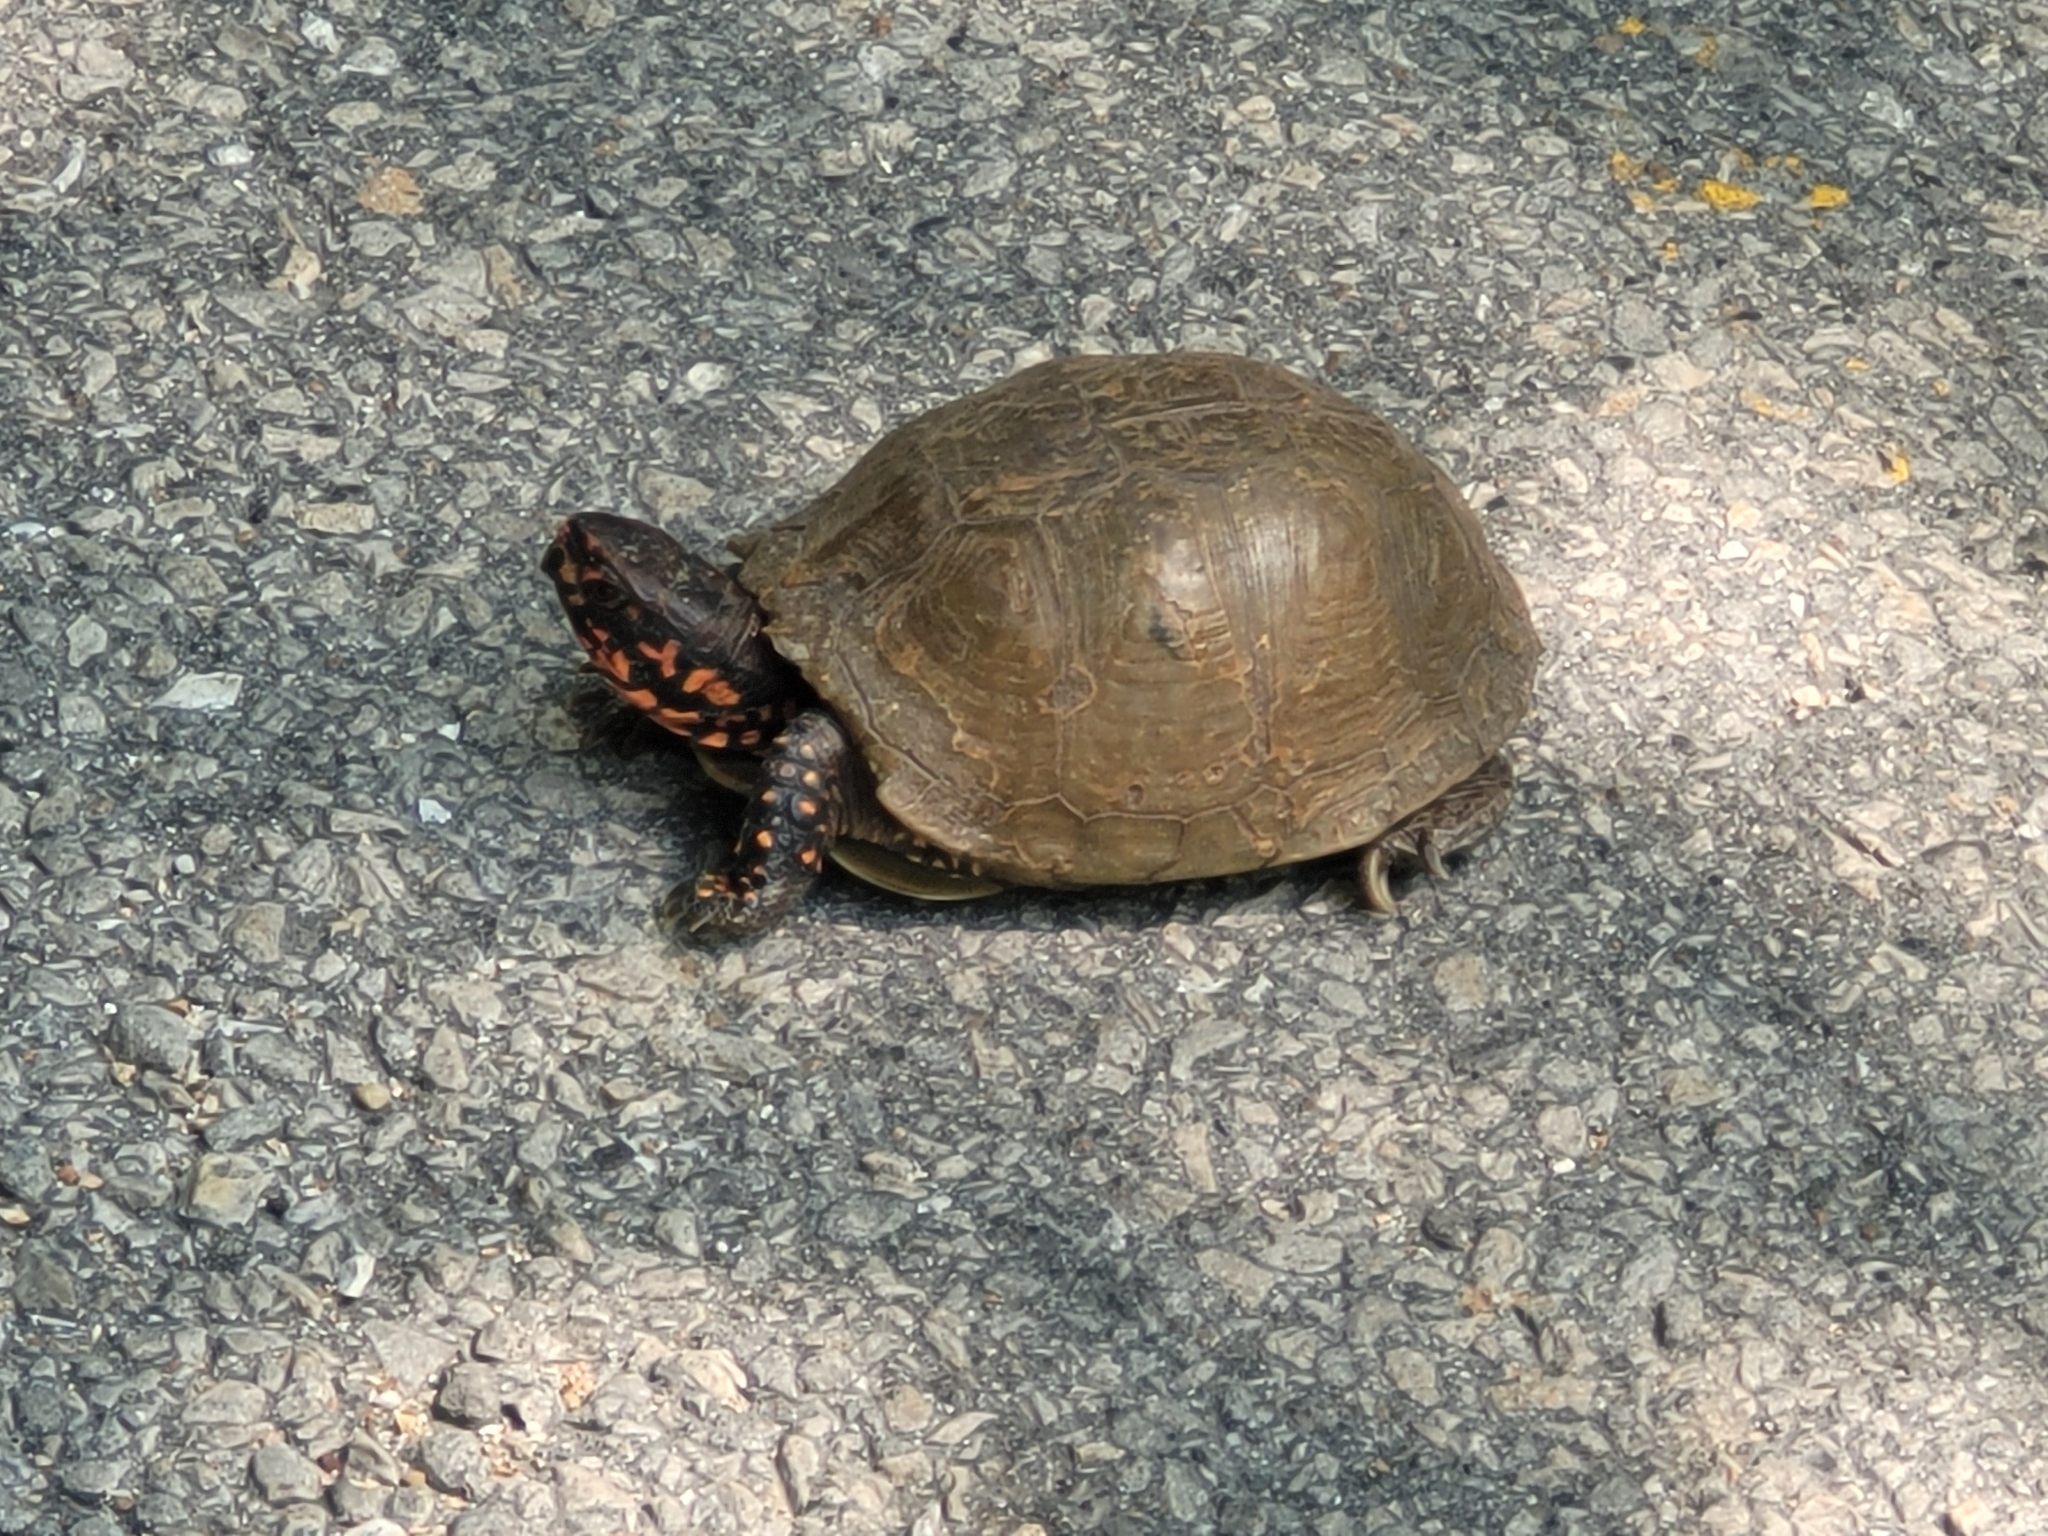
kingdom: Animalia
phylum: Chordata
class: Testudines
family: Emydidae
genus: Terrapene
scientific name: Terrapene carolina
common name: Common box turtle
